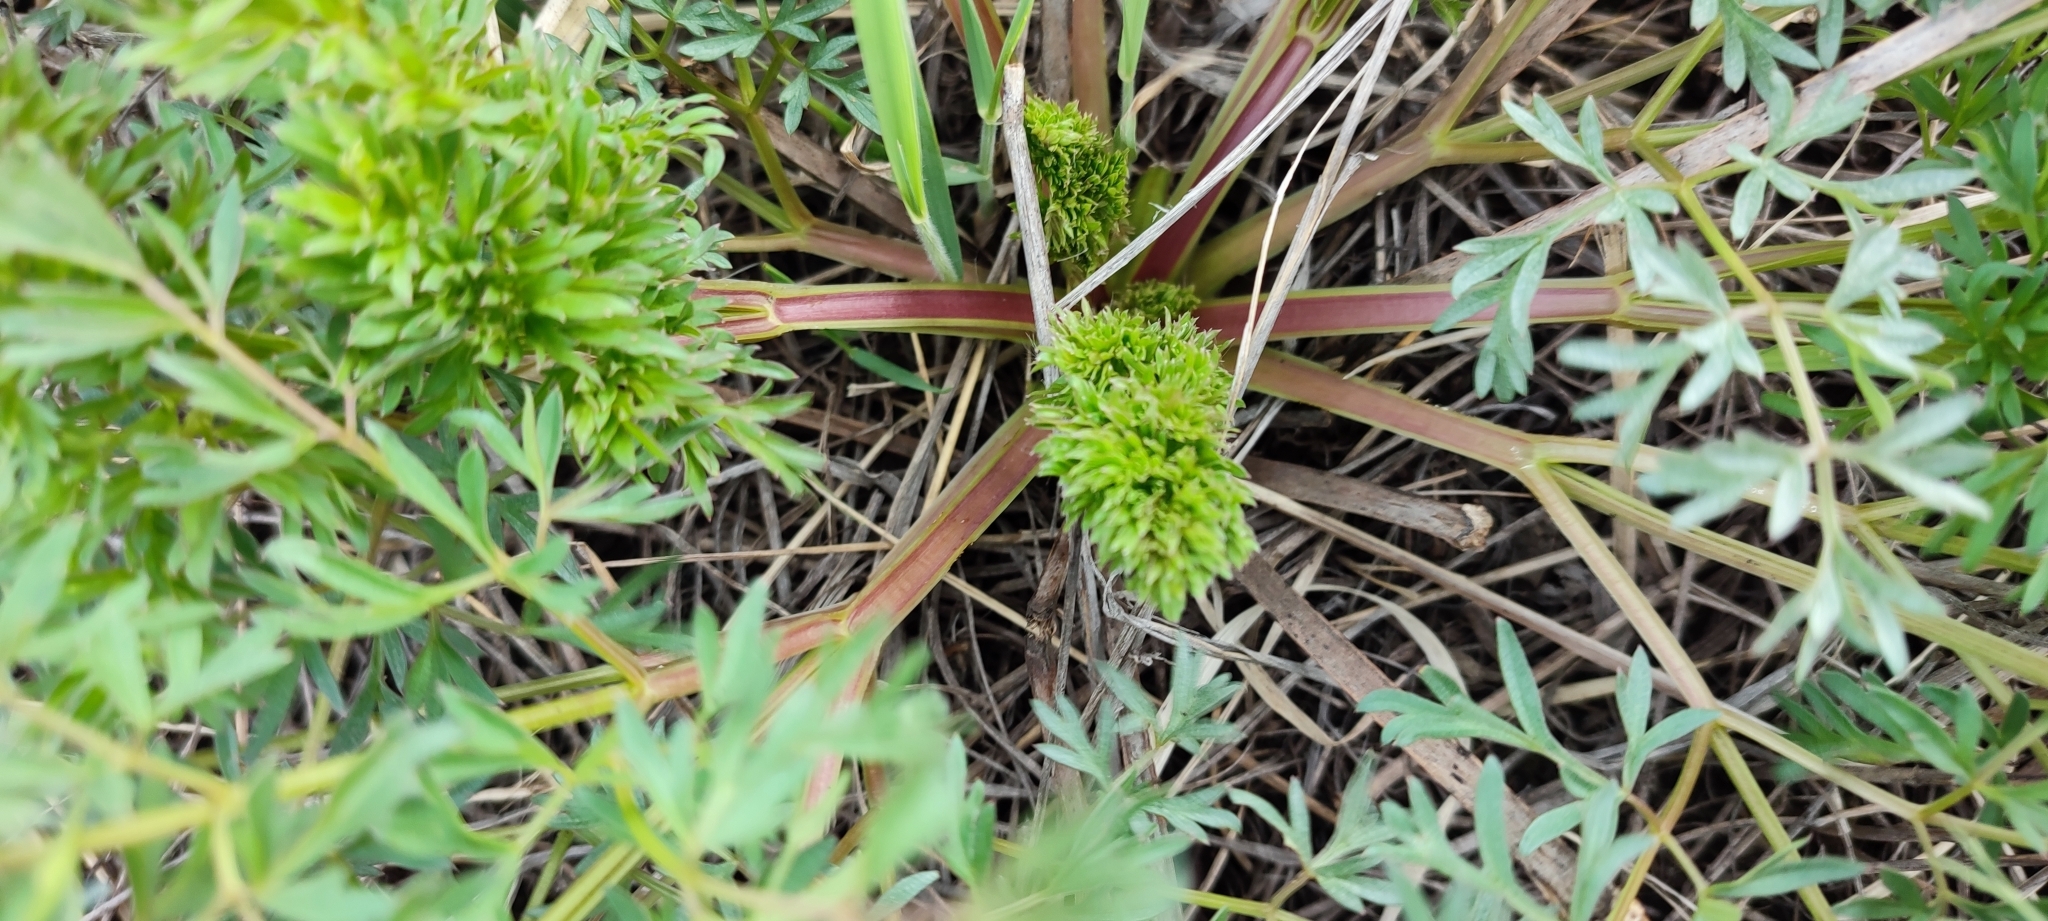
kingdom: Plantae
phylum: Tracheophyta
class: Magnoliopsida
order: Apiales
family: Apiaceae
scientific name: Apiaceae
